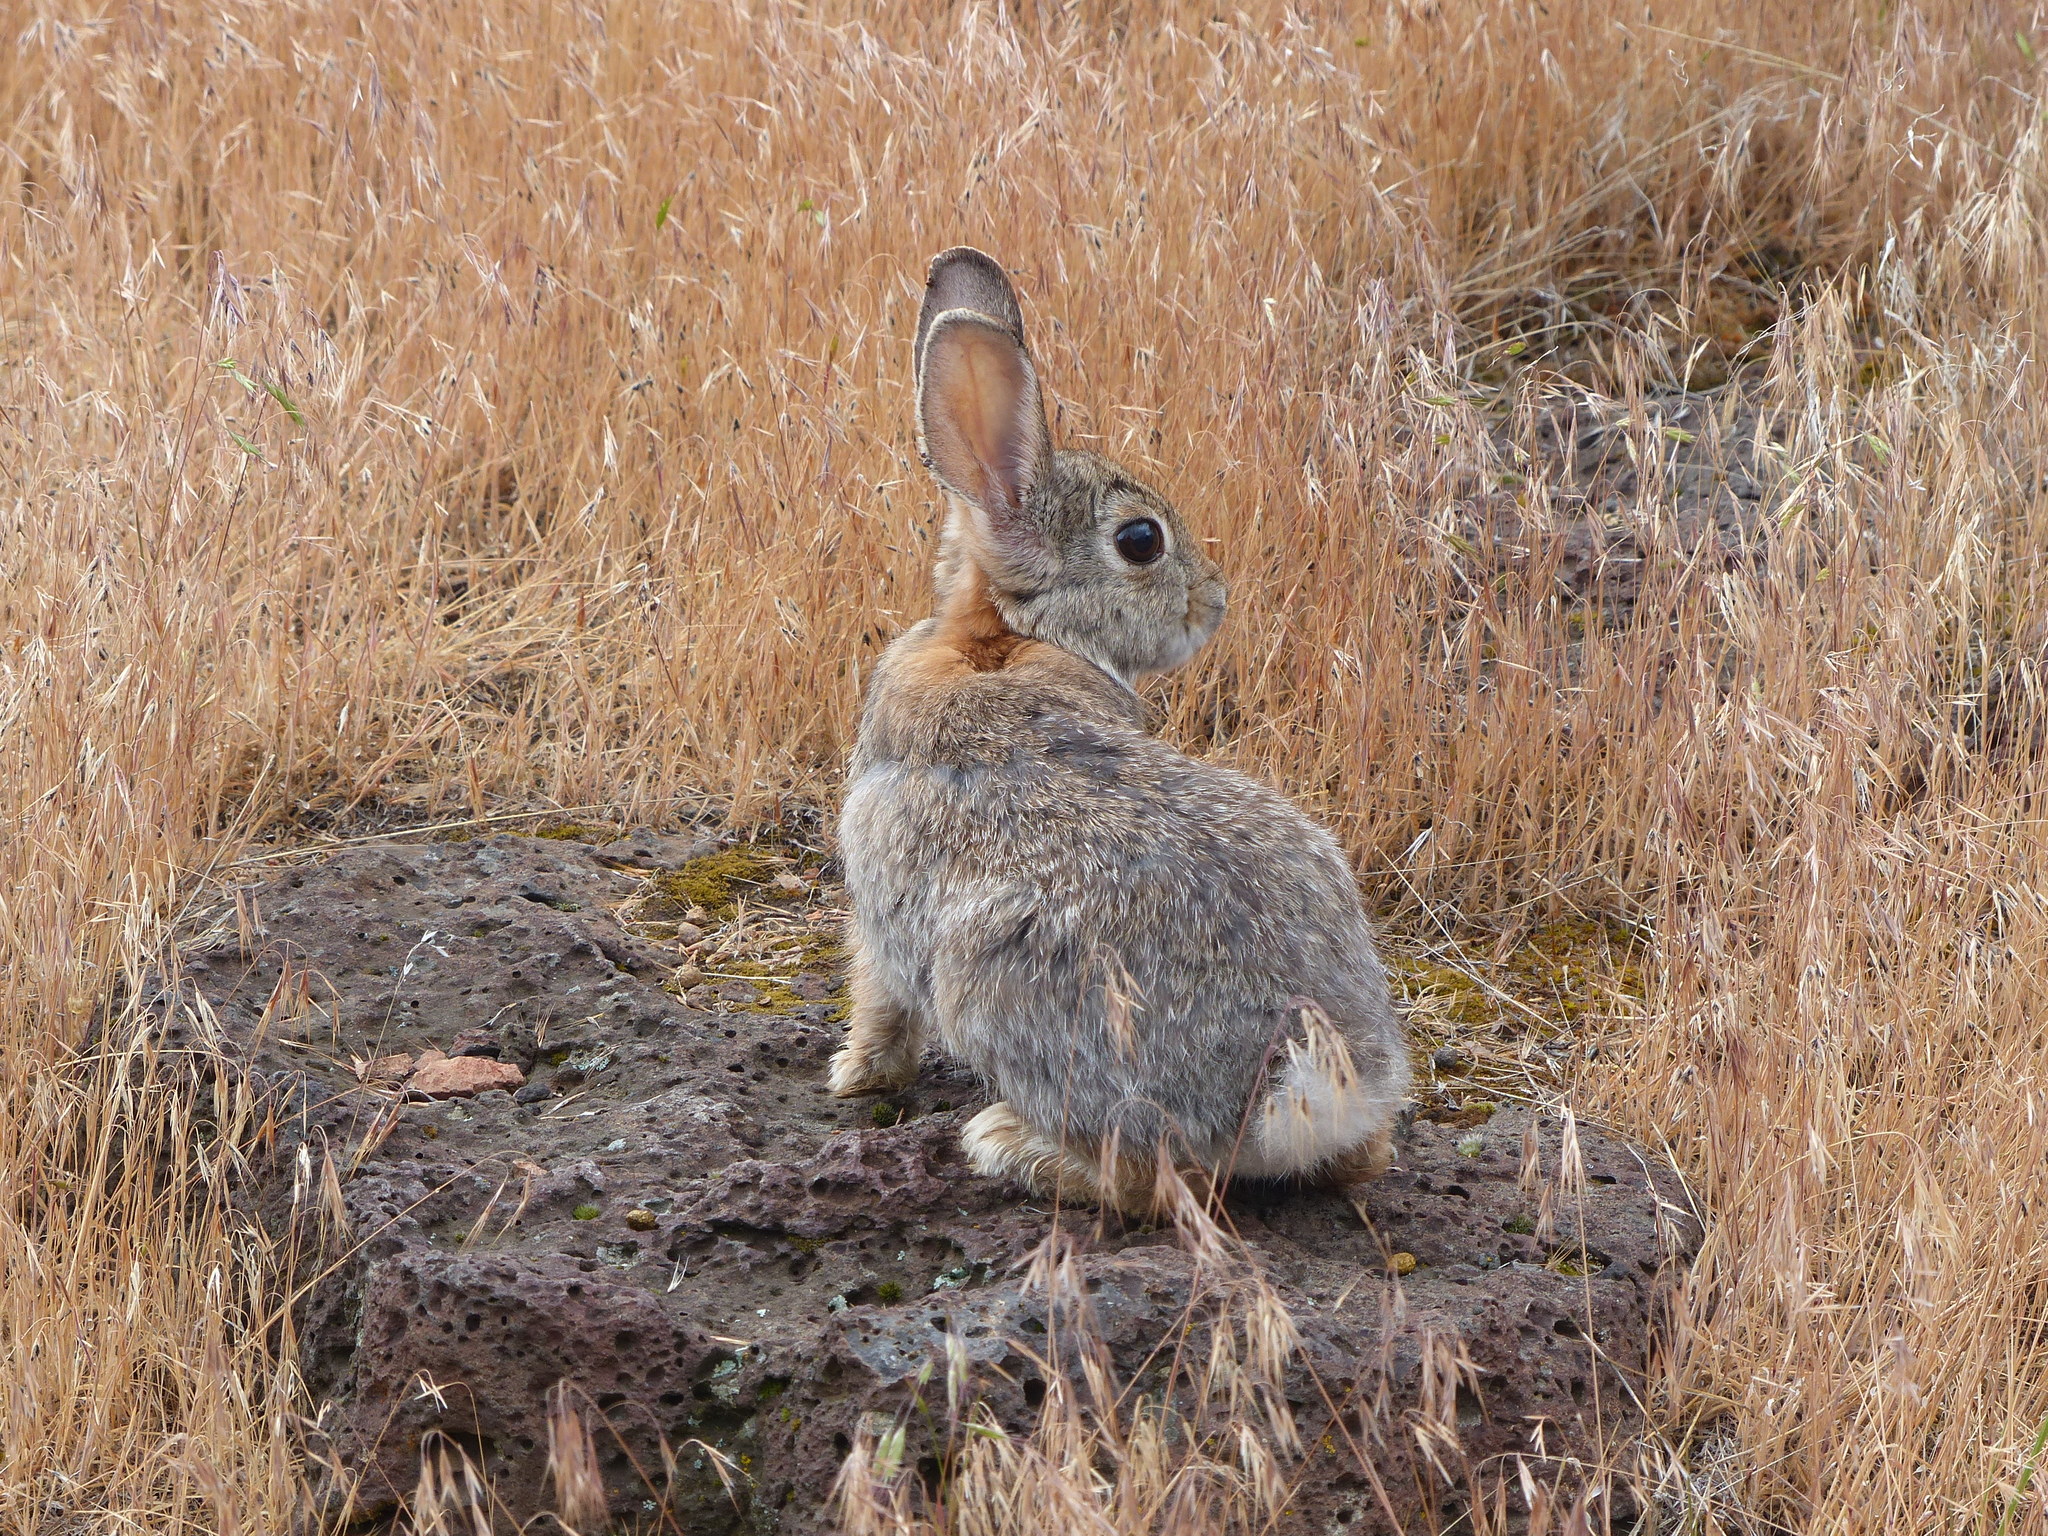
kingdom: Animalia
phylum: Chordata
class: Mammalia
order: Lagomorpha
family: Leporidae
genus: Sylvilagus
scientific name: Sylvilagus nuttallii
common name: Mountain cottontail
